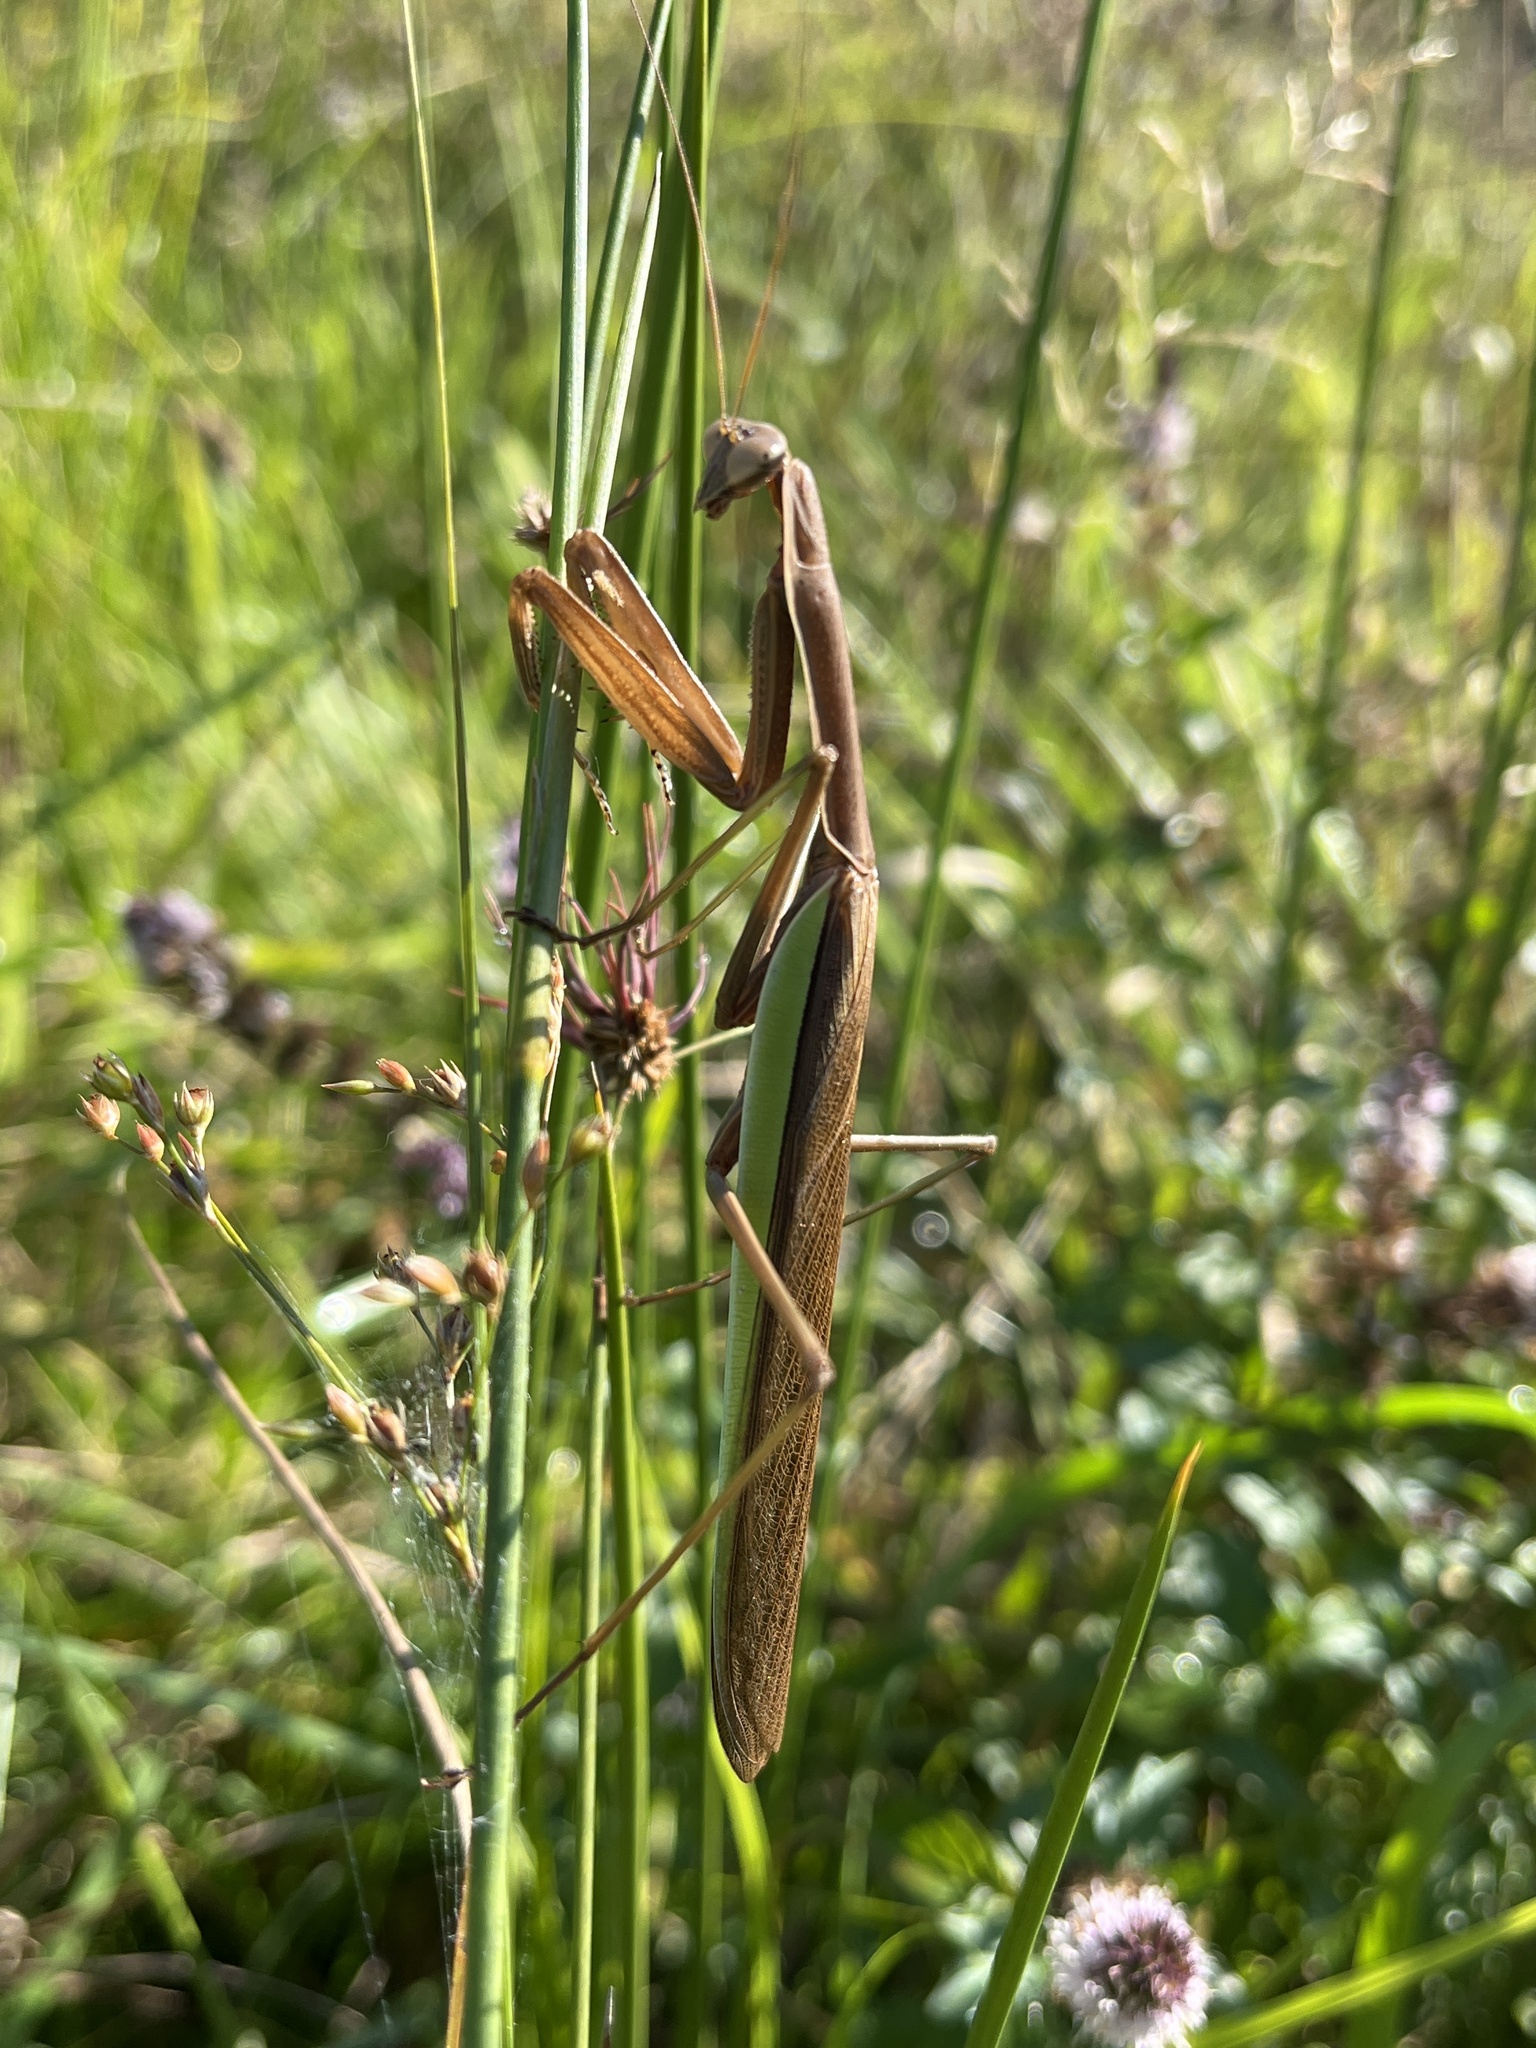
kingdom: Animalia
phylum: Arthropoda
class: Insecta
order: Mantodea
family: Mantidae
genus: Tenodera
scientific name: Tenodera sinensis
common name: Chinese mantis
